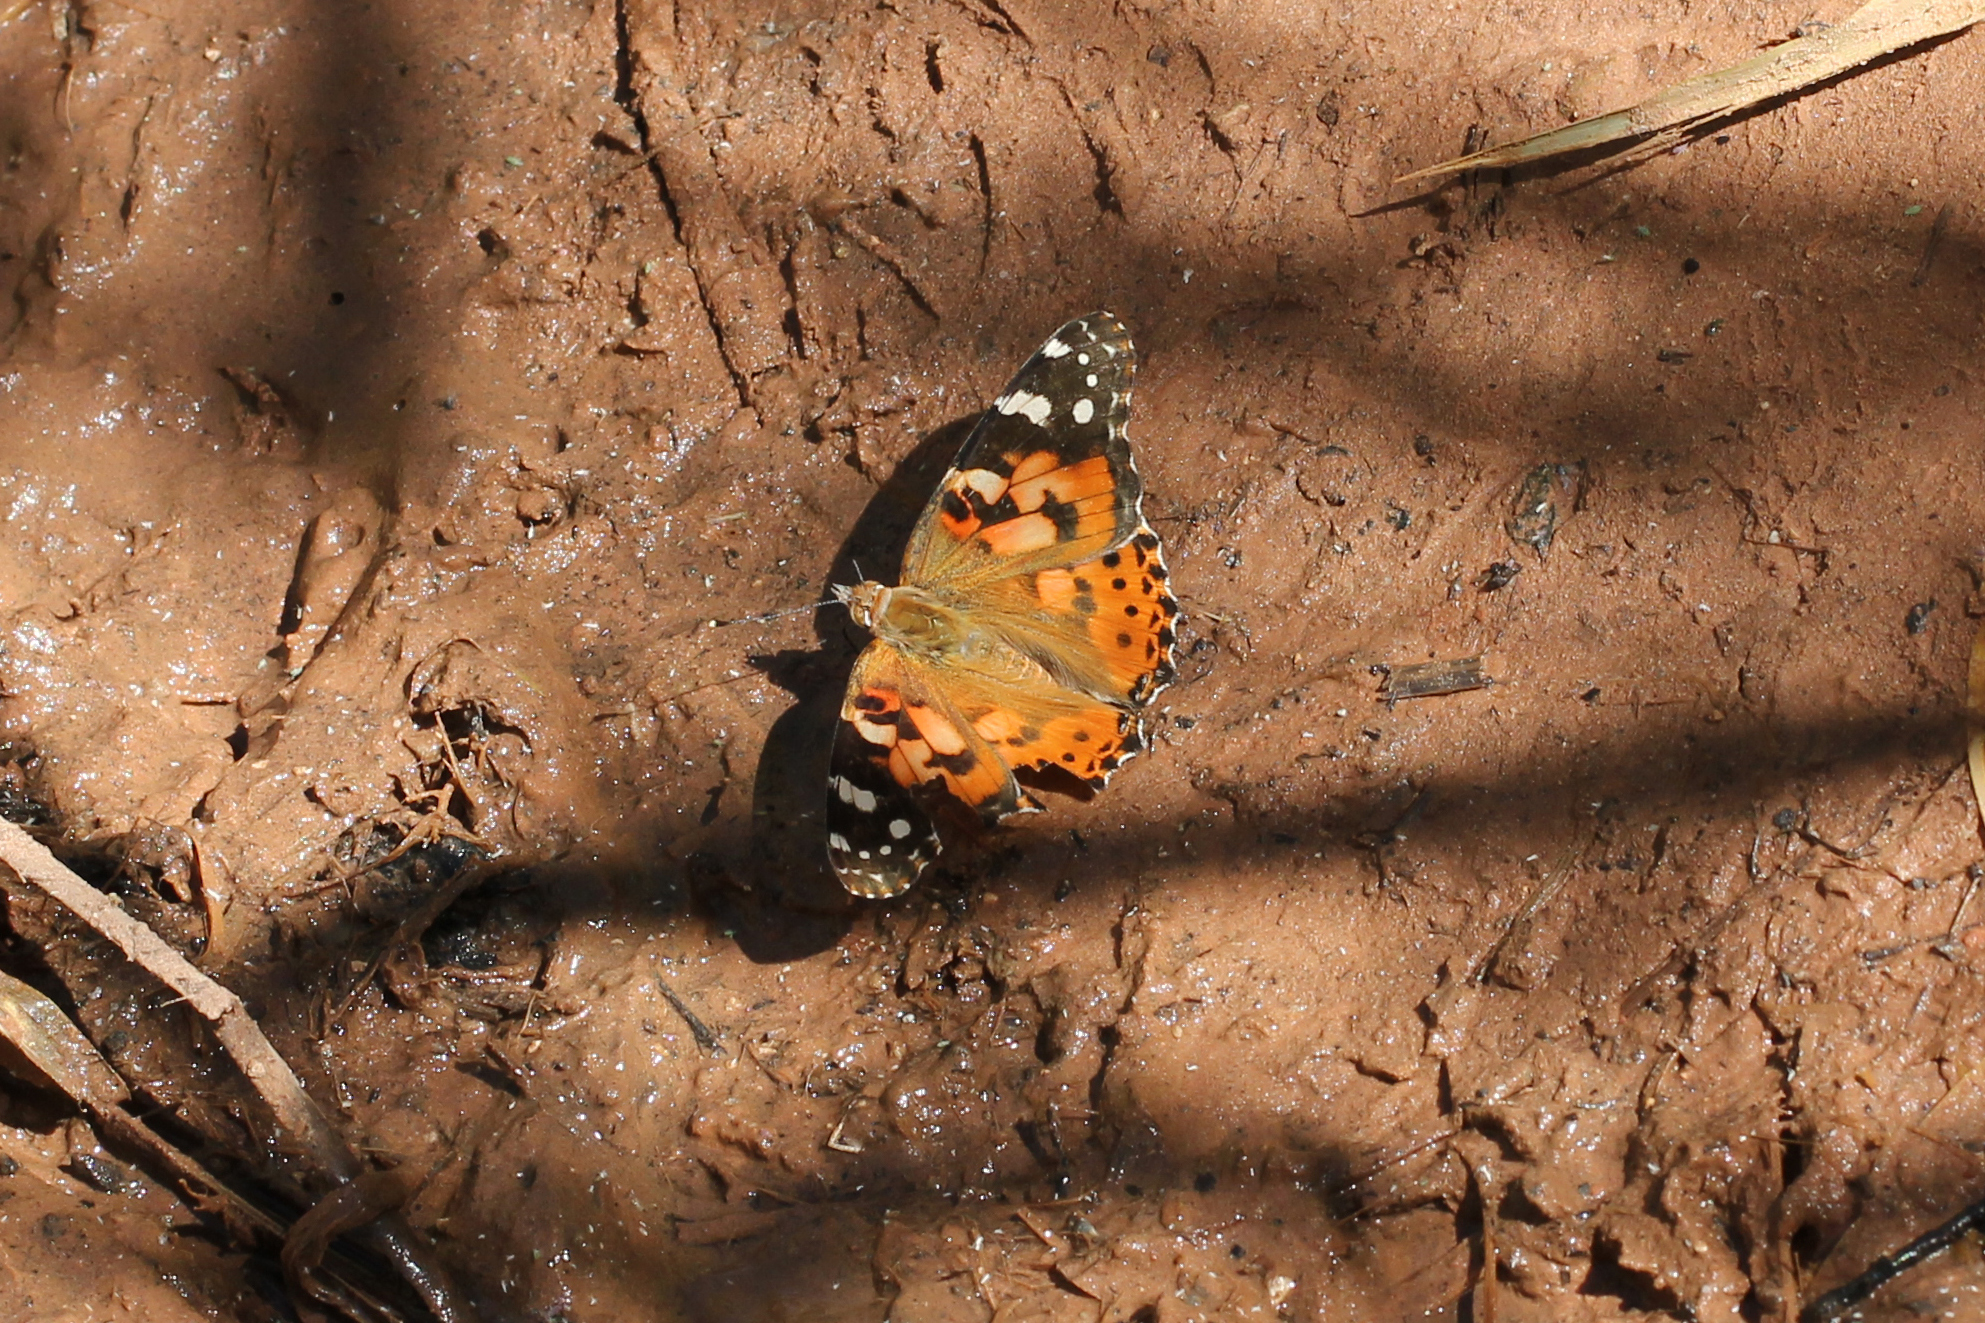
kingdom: Animalia
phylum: Arthropoda
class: Insecta
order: Lepidoptera
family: Nymphalidae
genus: Vanessa
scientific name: Vanessa cardui
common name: Painted lady
